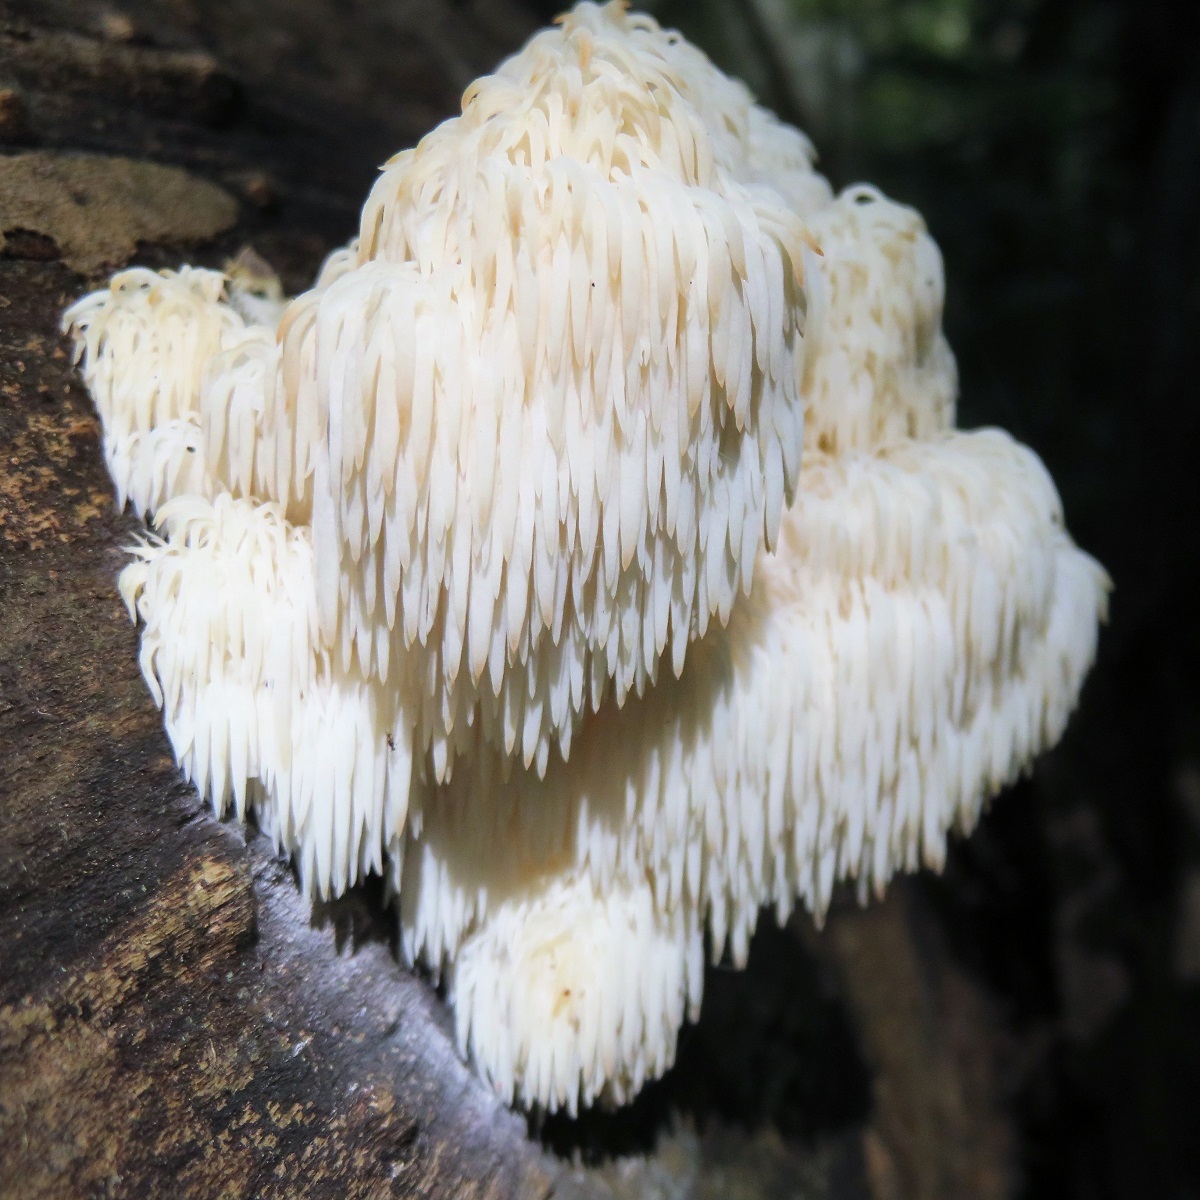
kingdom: Fungi
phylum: Basidiomycota
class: Agaricomycetes
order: Russulales
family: Hericiaceae
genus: Hericium
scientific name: Hericium americanum
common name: Bear's head tooth
